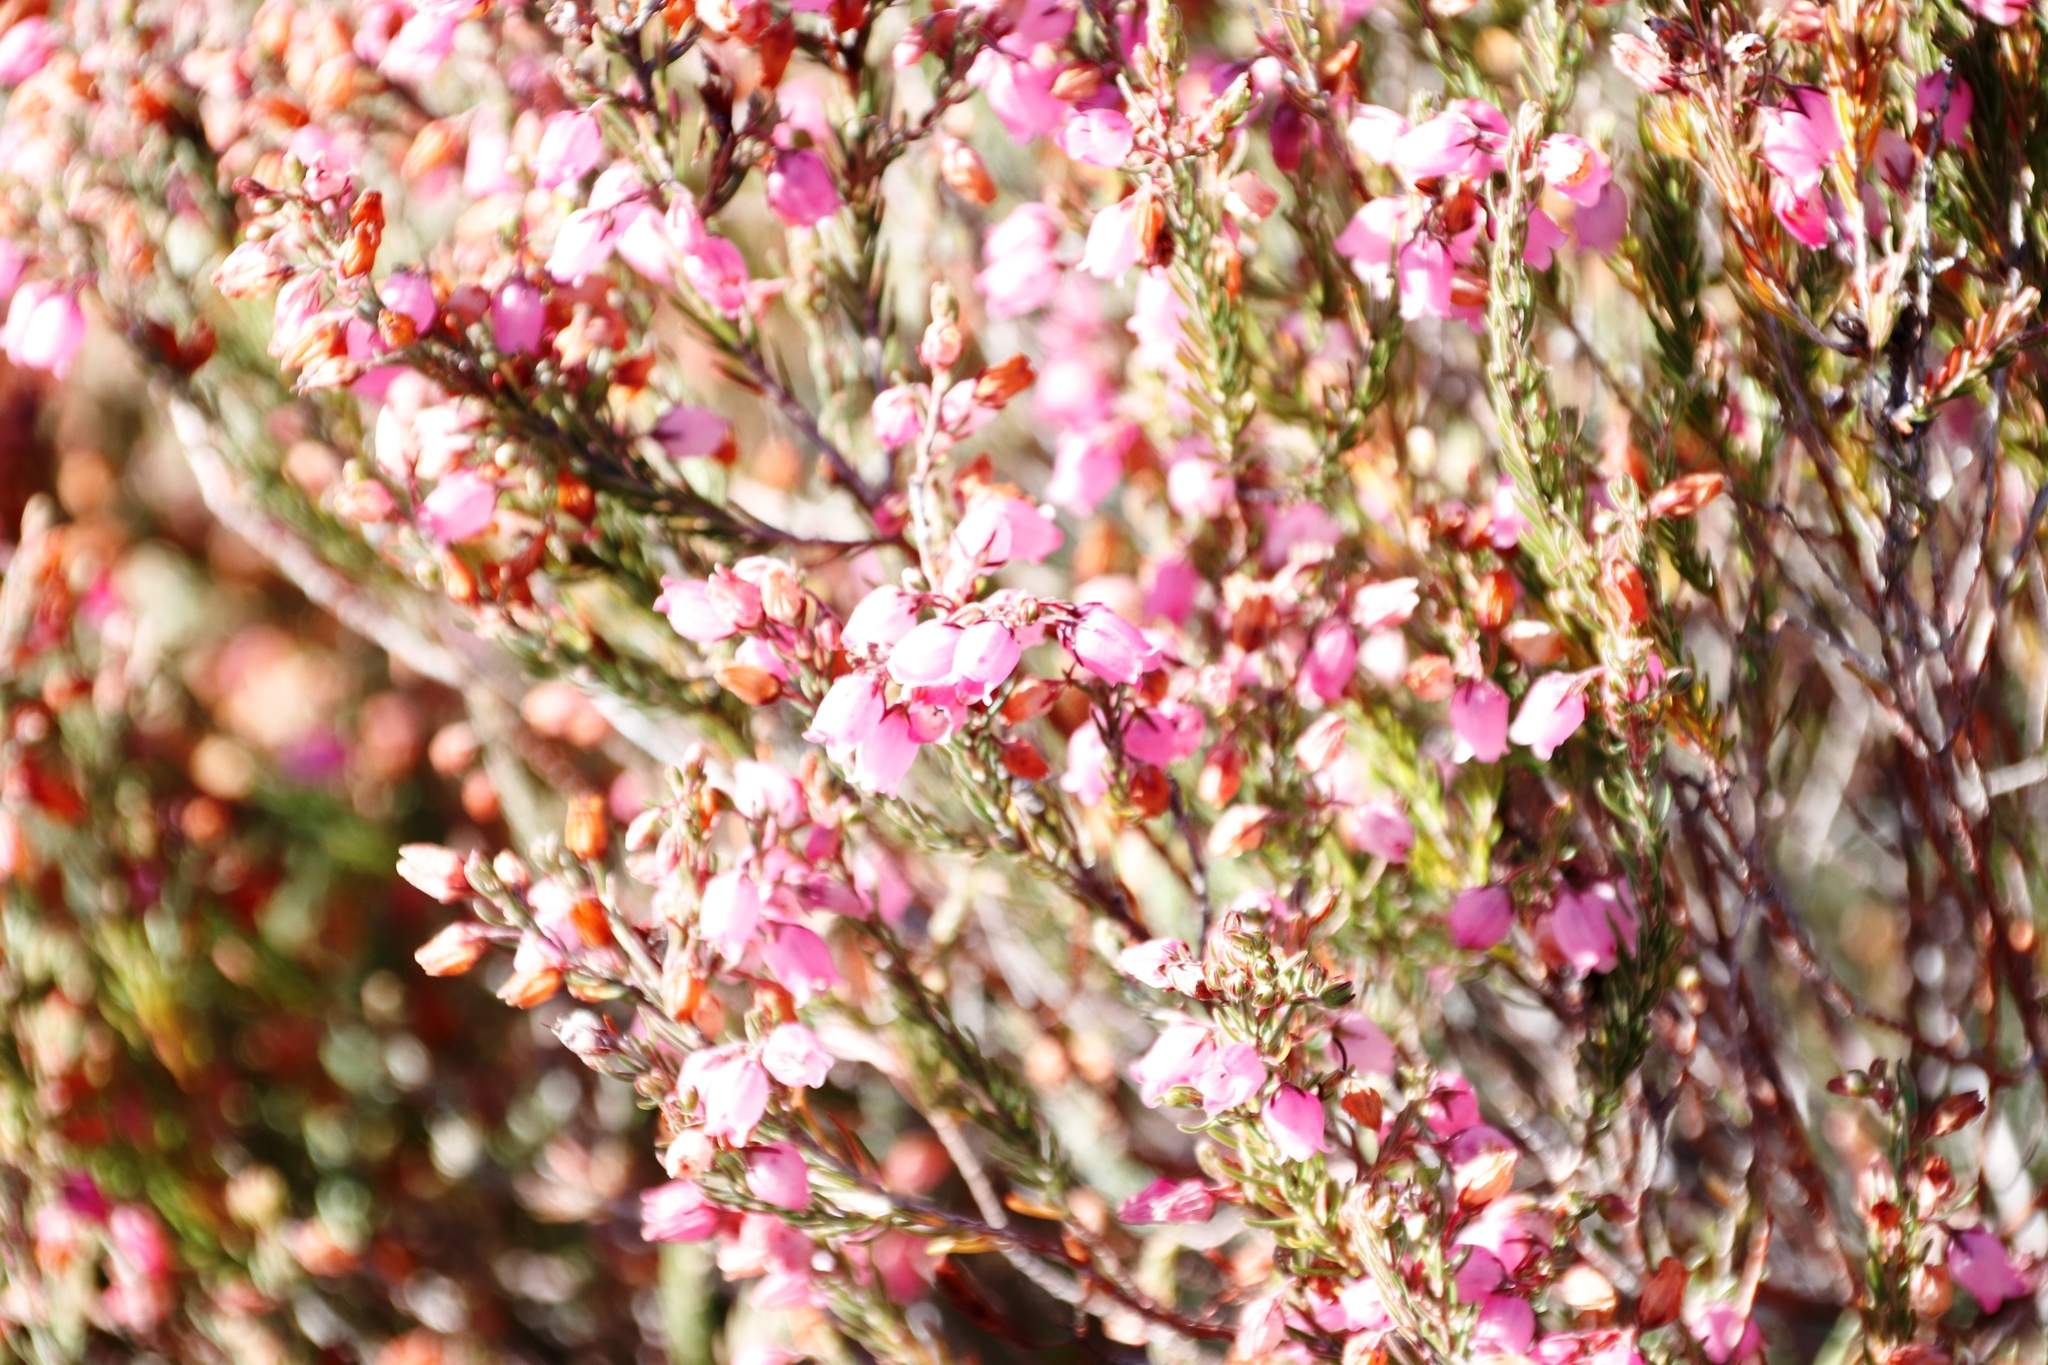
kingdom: Plantae
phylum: Tracheophyta
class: Magnoliopsida
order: Ericales
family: Ericaceae
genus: Erica
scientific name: Erica viscaria
